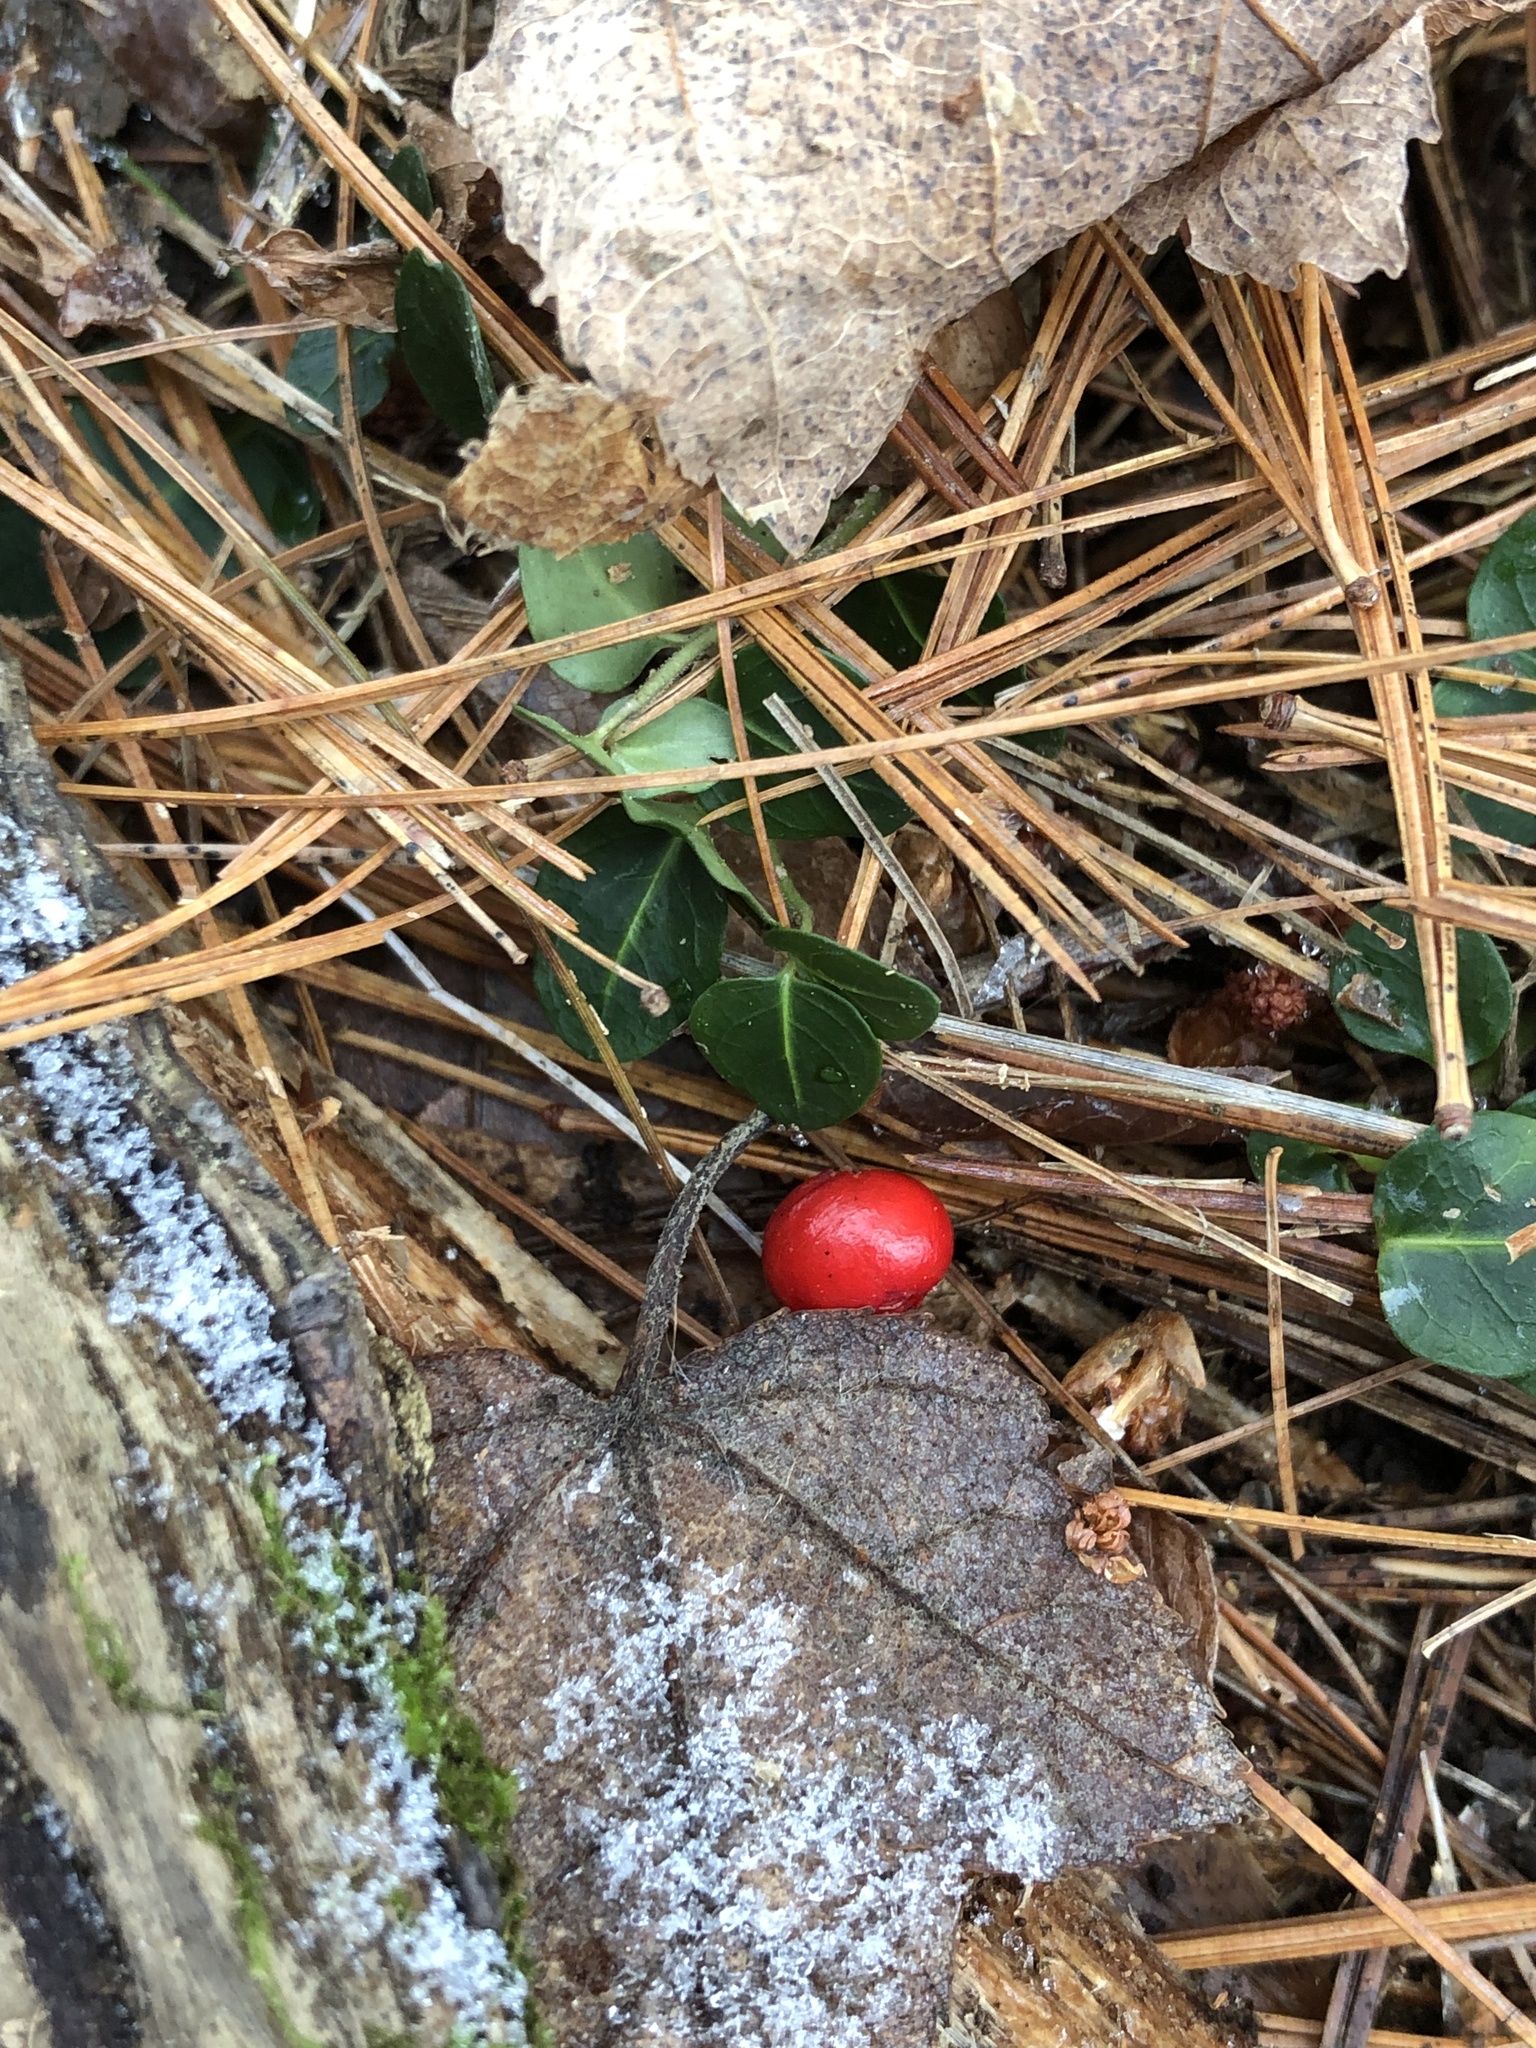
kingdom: Plantae
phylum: Tracheophyta
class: Magnoliopsida
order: Gentianales
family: Rubiaceae
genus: Mitchella
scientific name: Mitchella repens
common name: Partridge-berry
